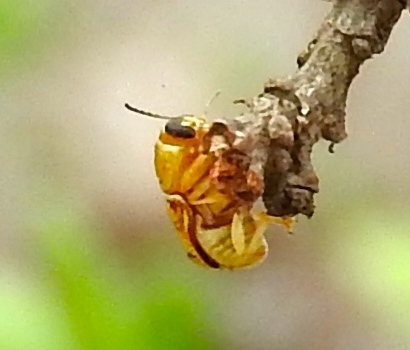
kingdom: Animalia
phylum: Arthropoda
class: Insecta
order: Coleoptera
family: Chrysomelidae
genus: Griburius
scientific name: Griburius puncturatus
